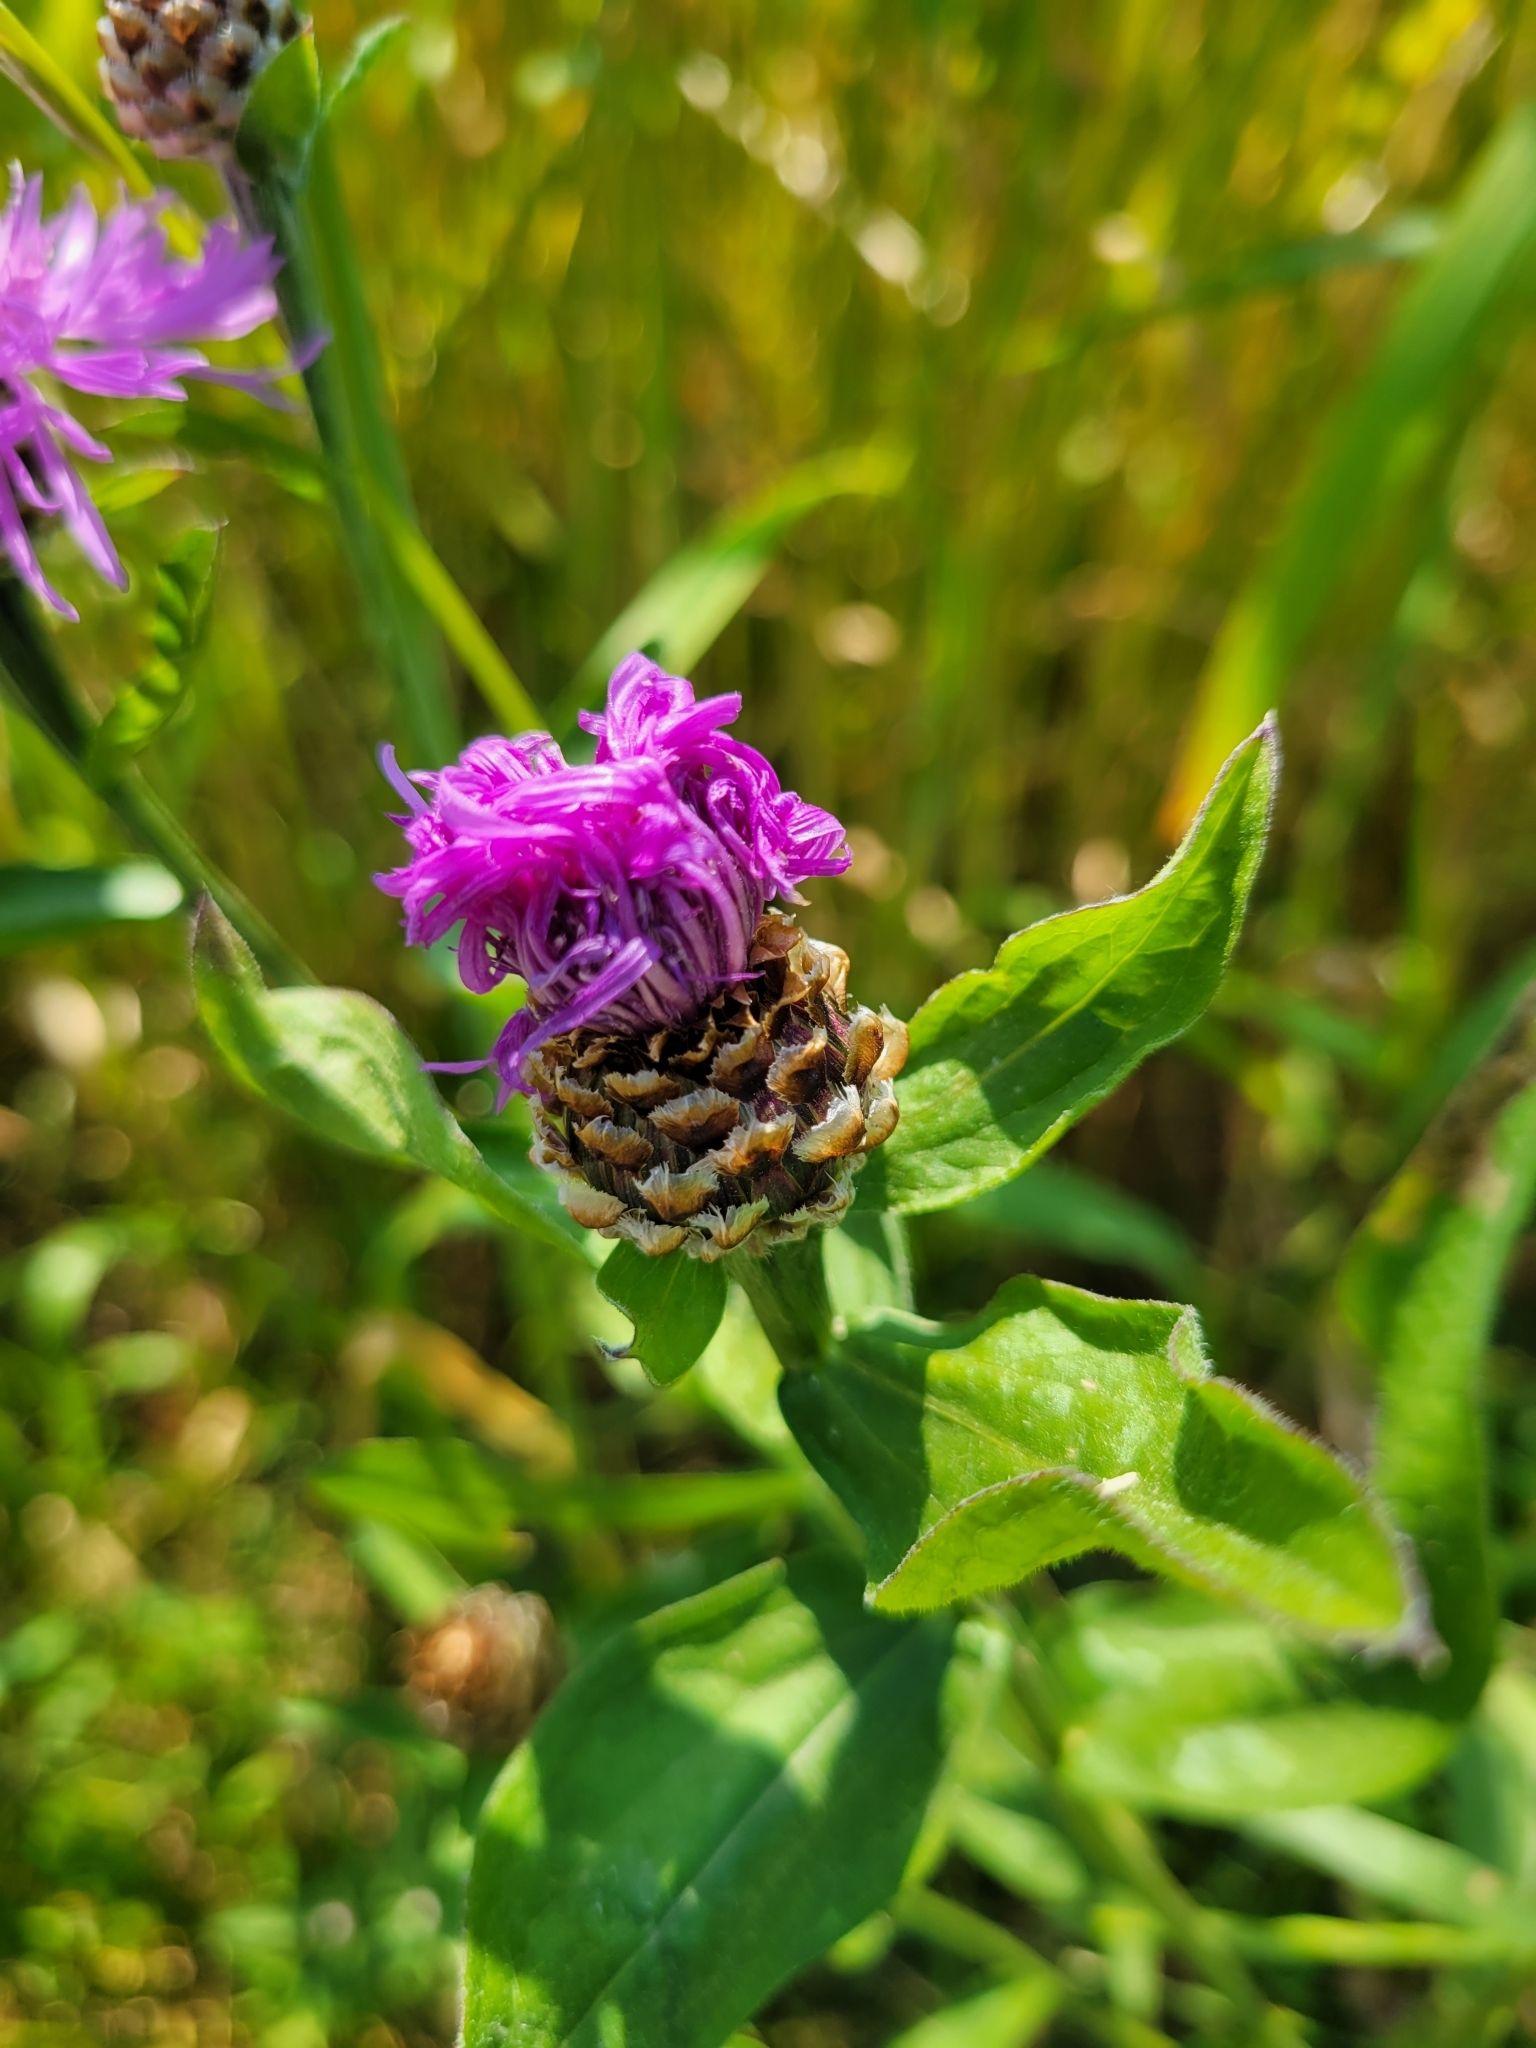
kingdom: Plantae
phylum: Tracheophyta
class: Magnoliopsida
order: Asterales
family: Asteraceae
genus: Centaurea
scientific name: Centaurea jacea
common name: Brown knapweed
